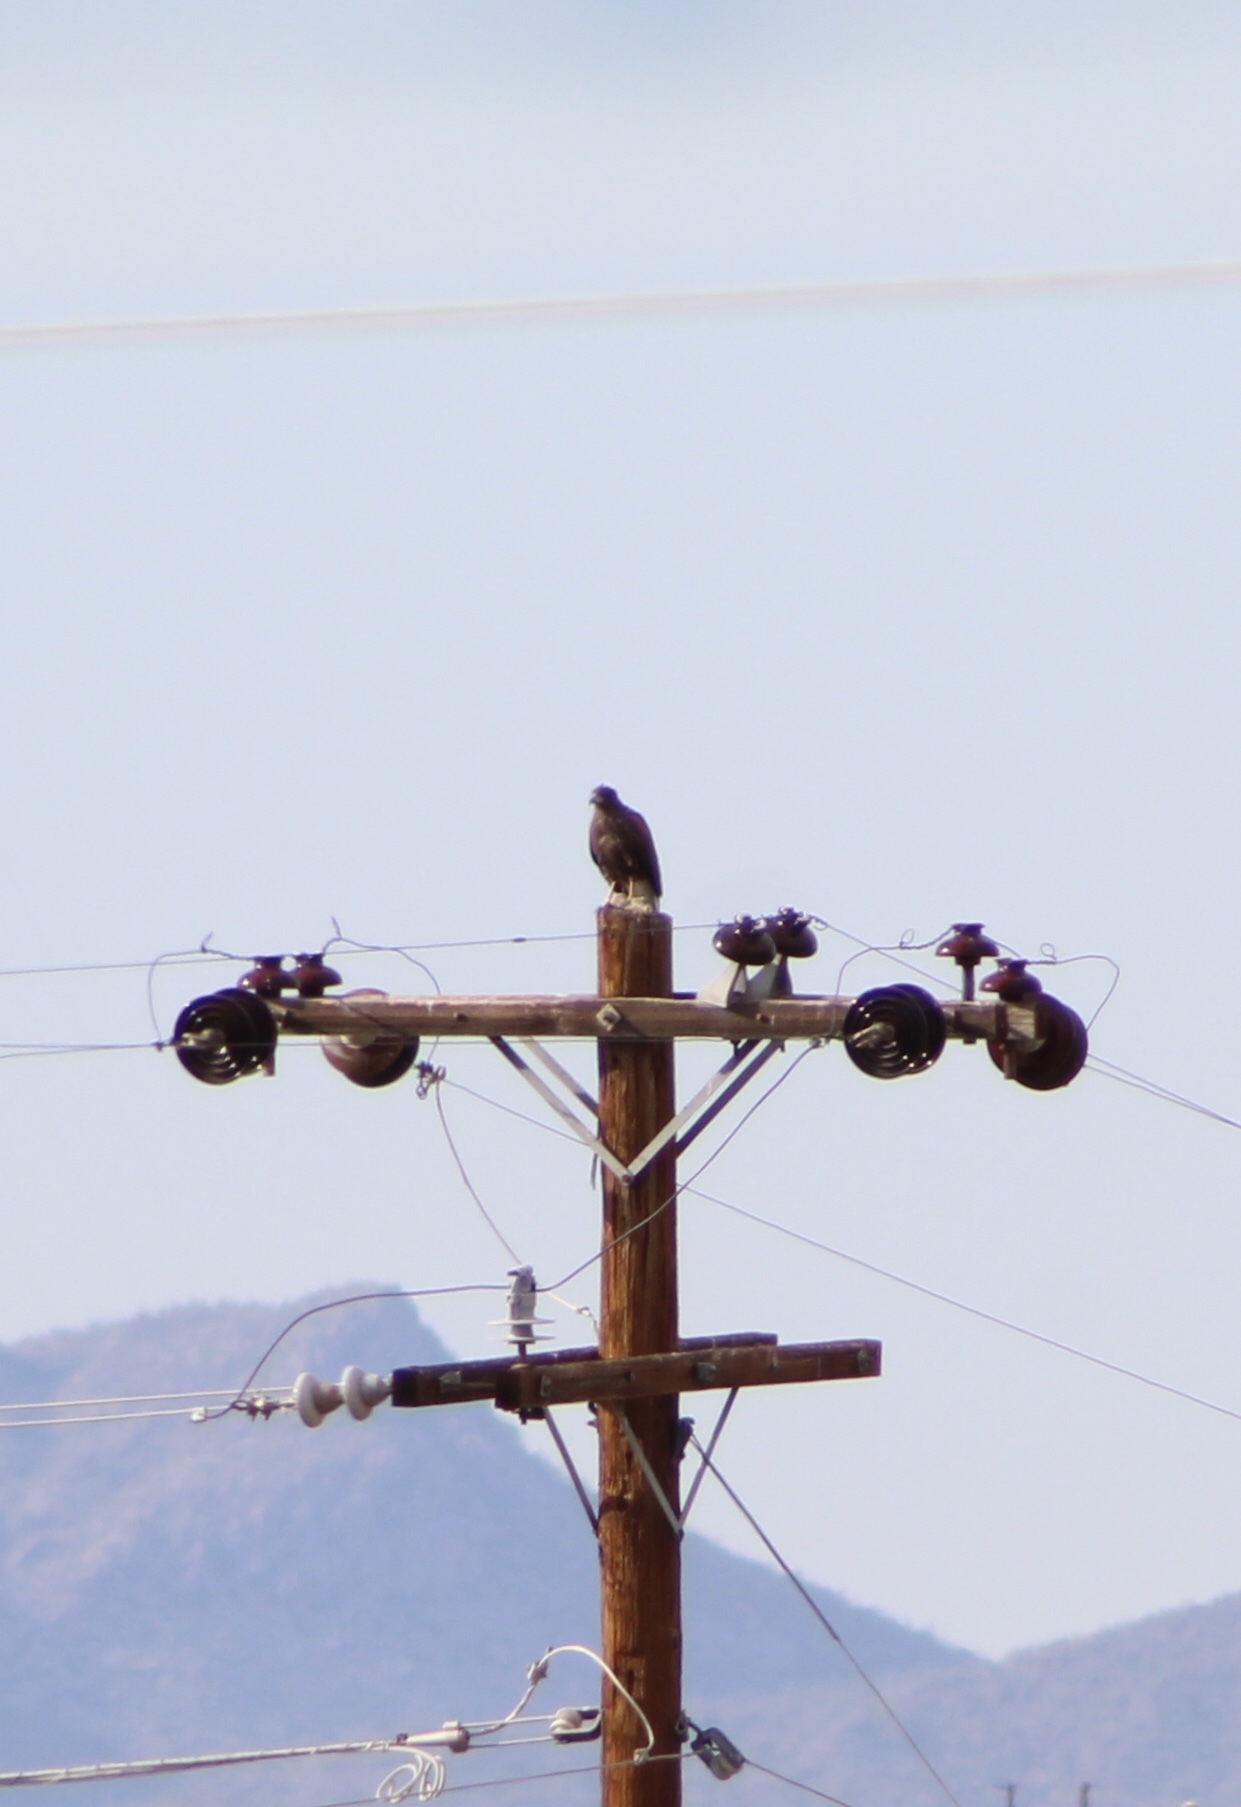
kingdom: Animalia
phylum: Chordata
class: Aves
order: Accipitriformes
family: Accipitridae
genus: Parabuteo
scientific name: Parabuteo unicinctus
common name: Harris's hawk
